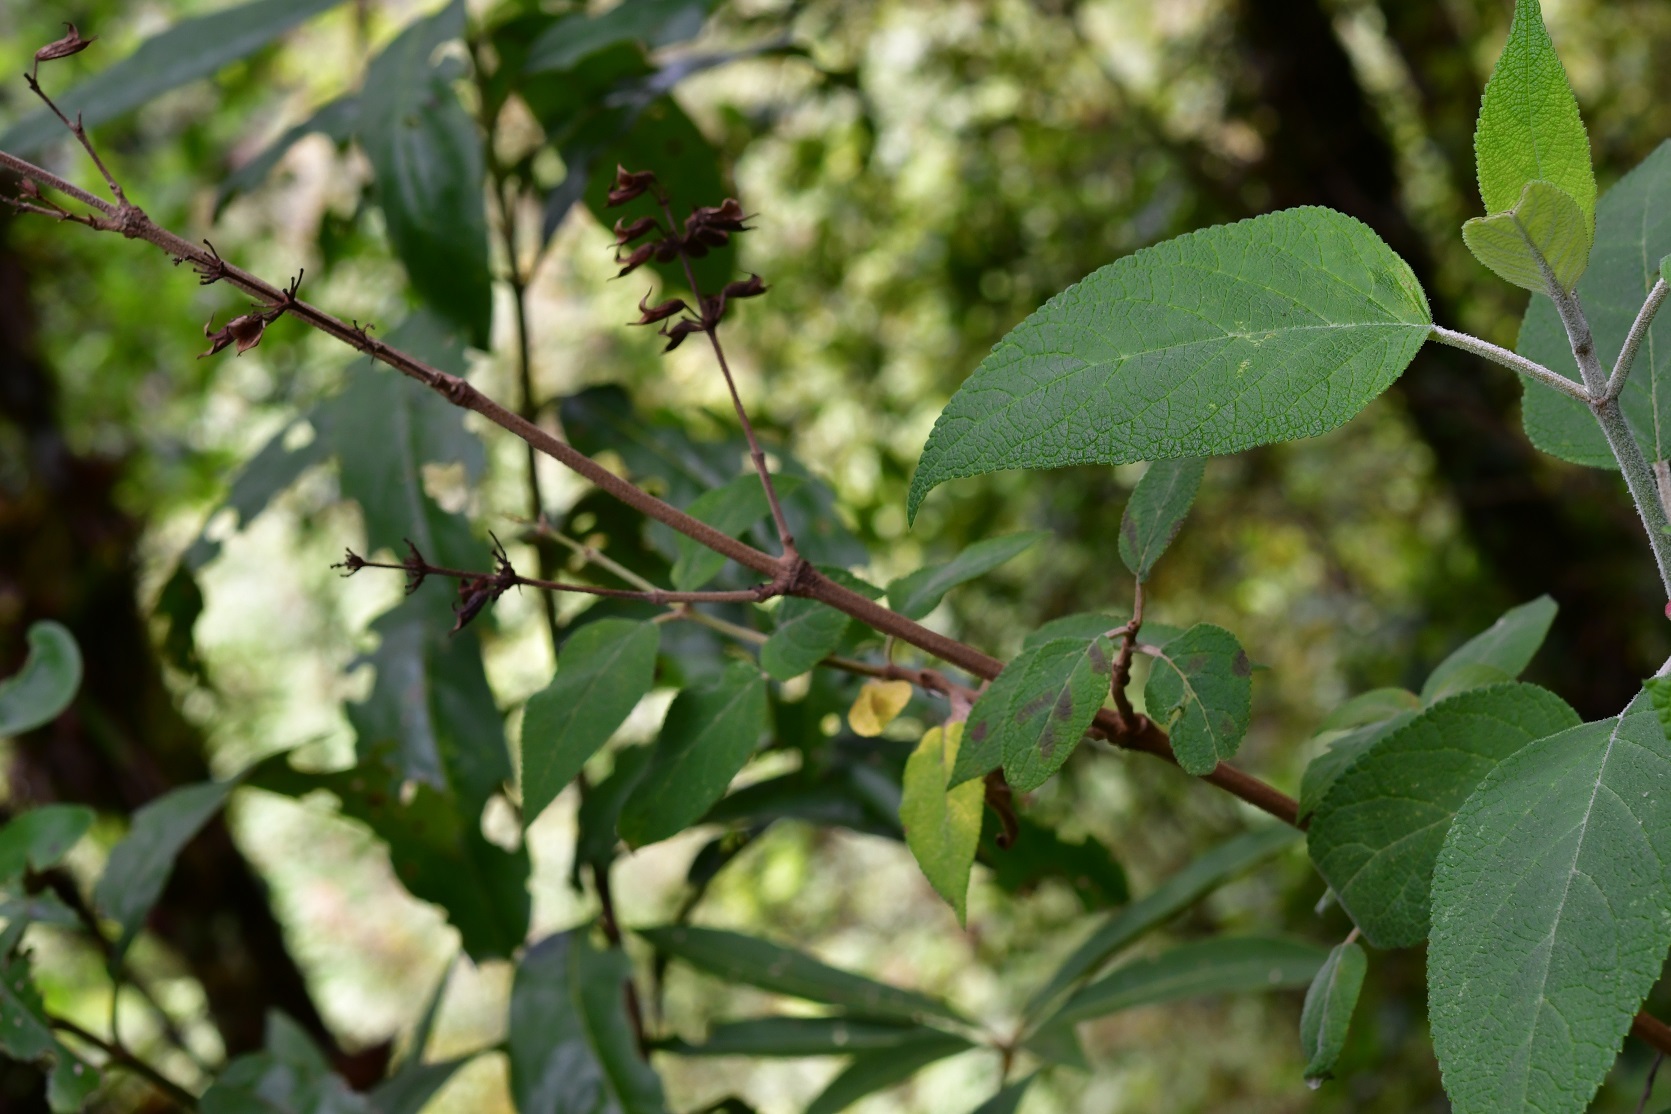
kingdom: Plantae
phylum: Tracheophyta
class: Magnoliopsida
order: Lamiales
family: Lamiaceae
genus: Salvia
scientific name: Salvia karwinskii
